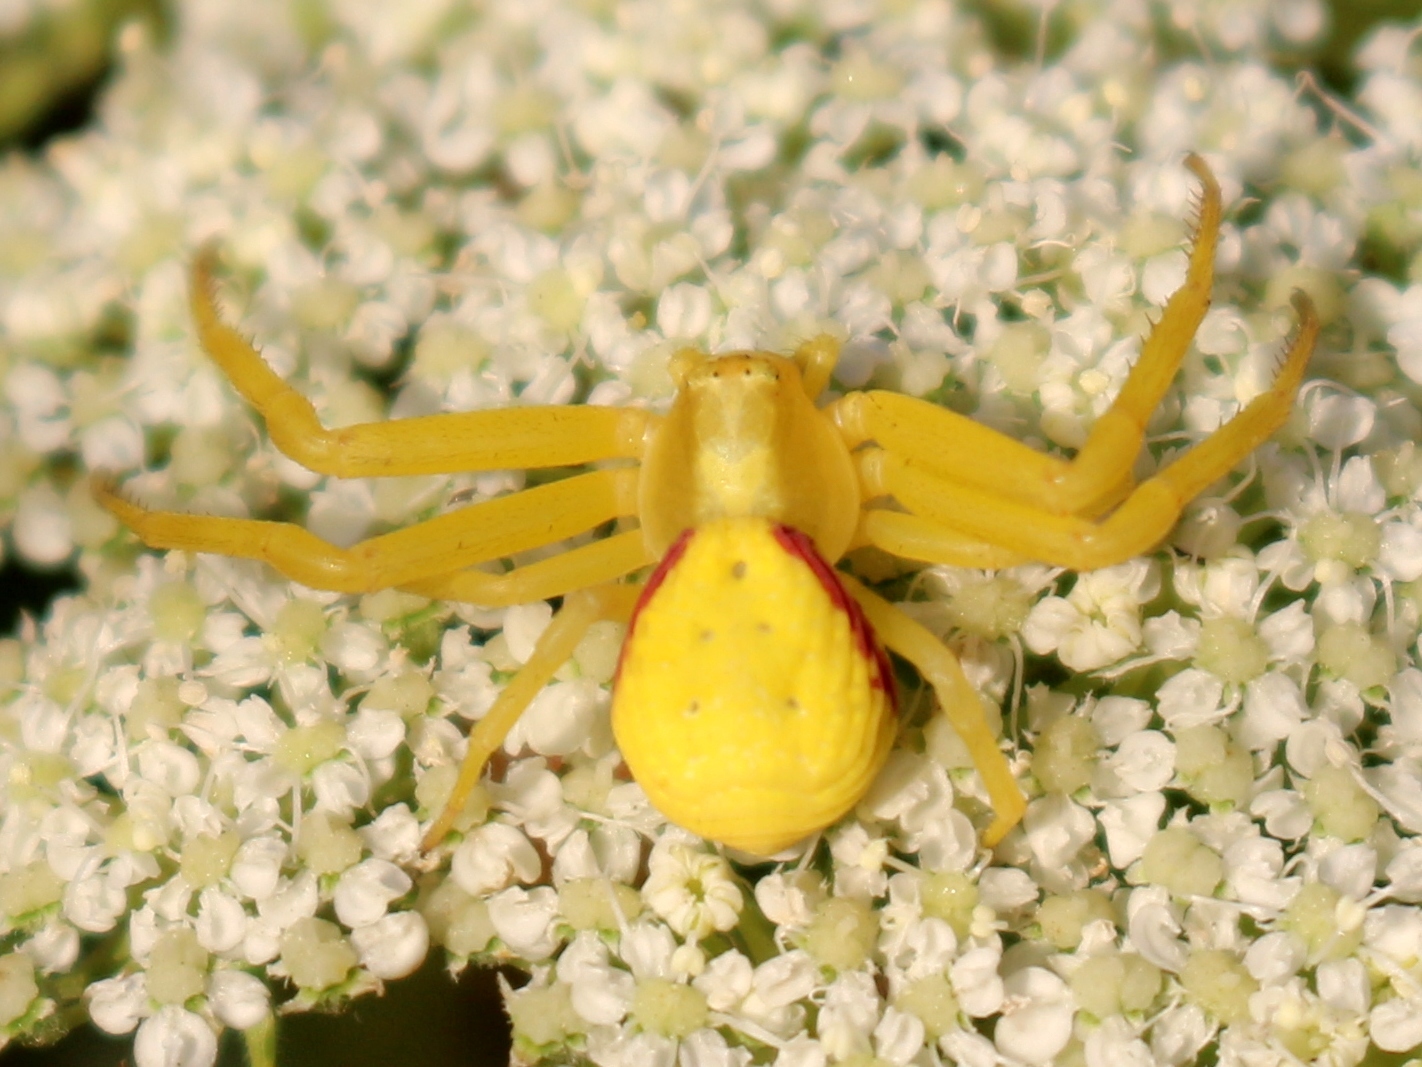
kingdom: Animalia
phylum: Arthropoda
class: Arachnida
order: Araneae
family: Thomisidae
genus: Misumena
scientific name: Misumena vatia
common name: Goldenrod crab spider
